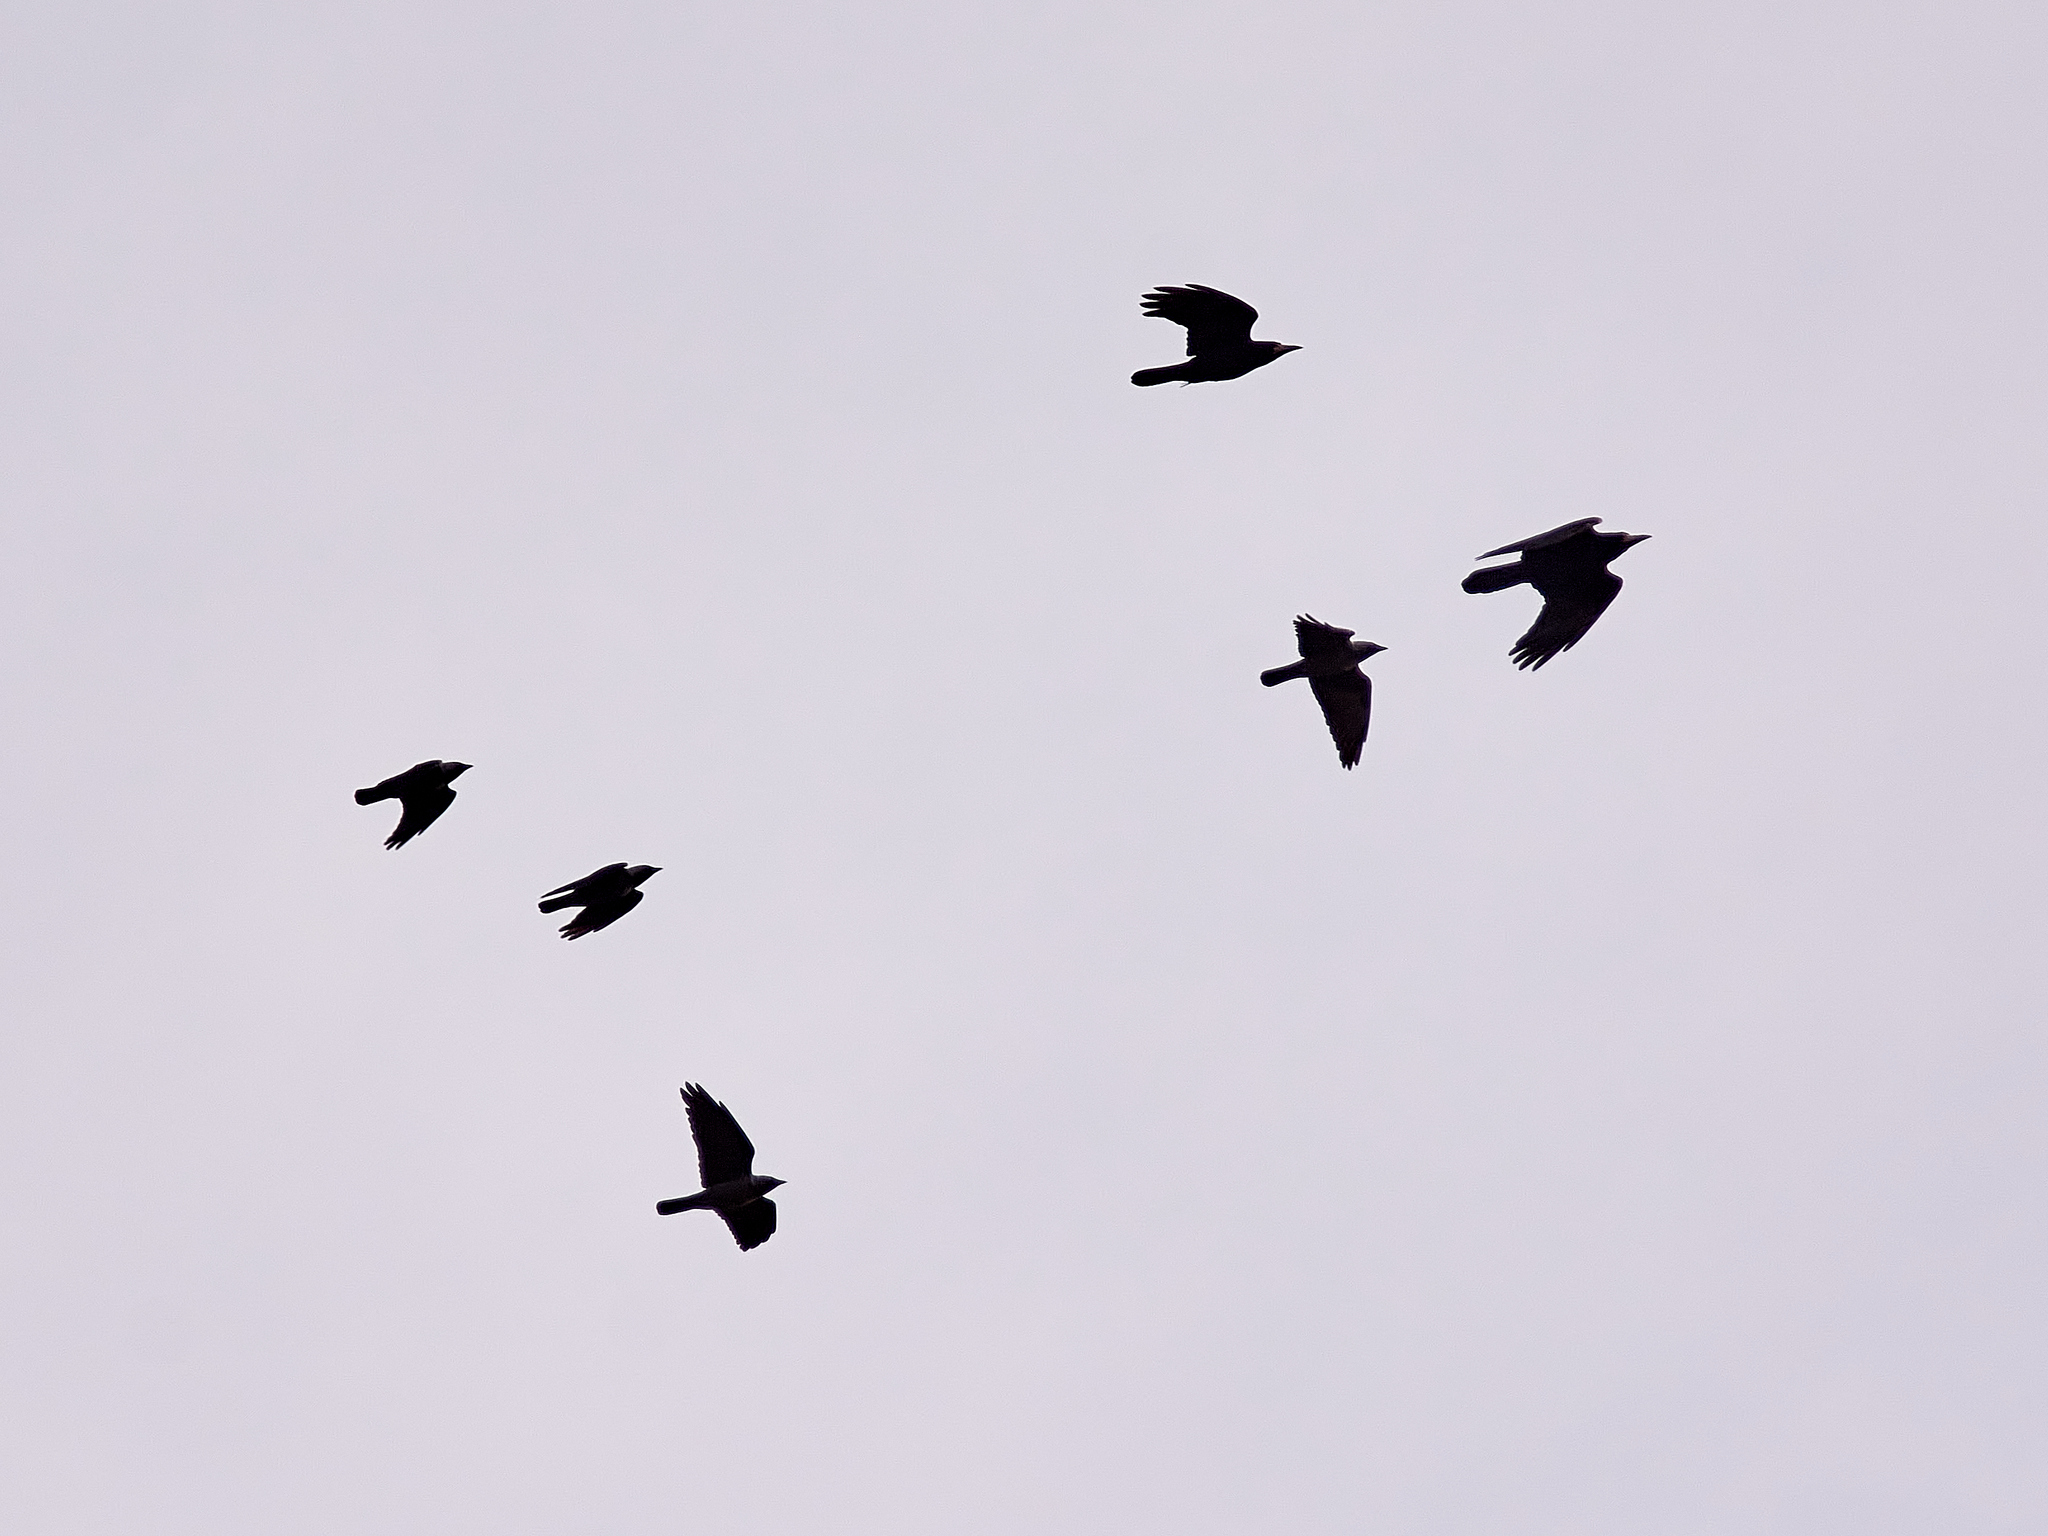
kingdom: Animalia
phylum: Chordata
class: Aves
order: Passeriformes
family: Corvidae
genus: Corvus
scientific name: Corvus frugilegus
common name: Rook
